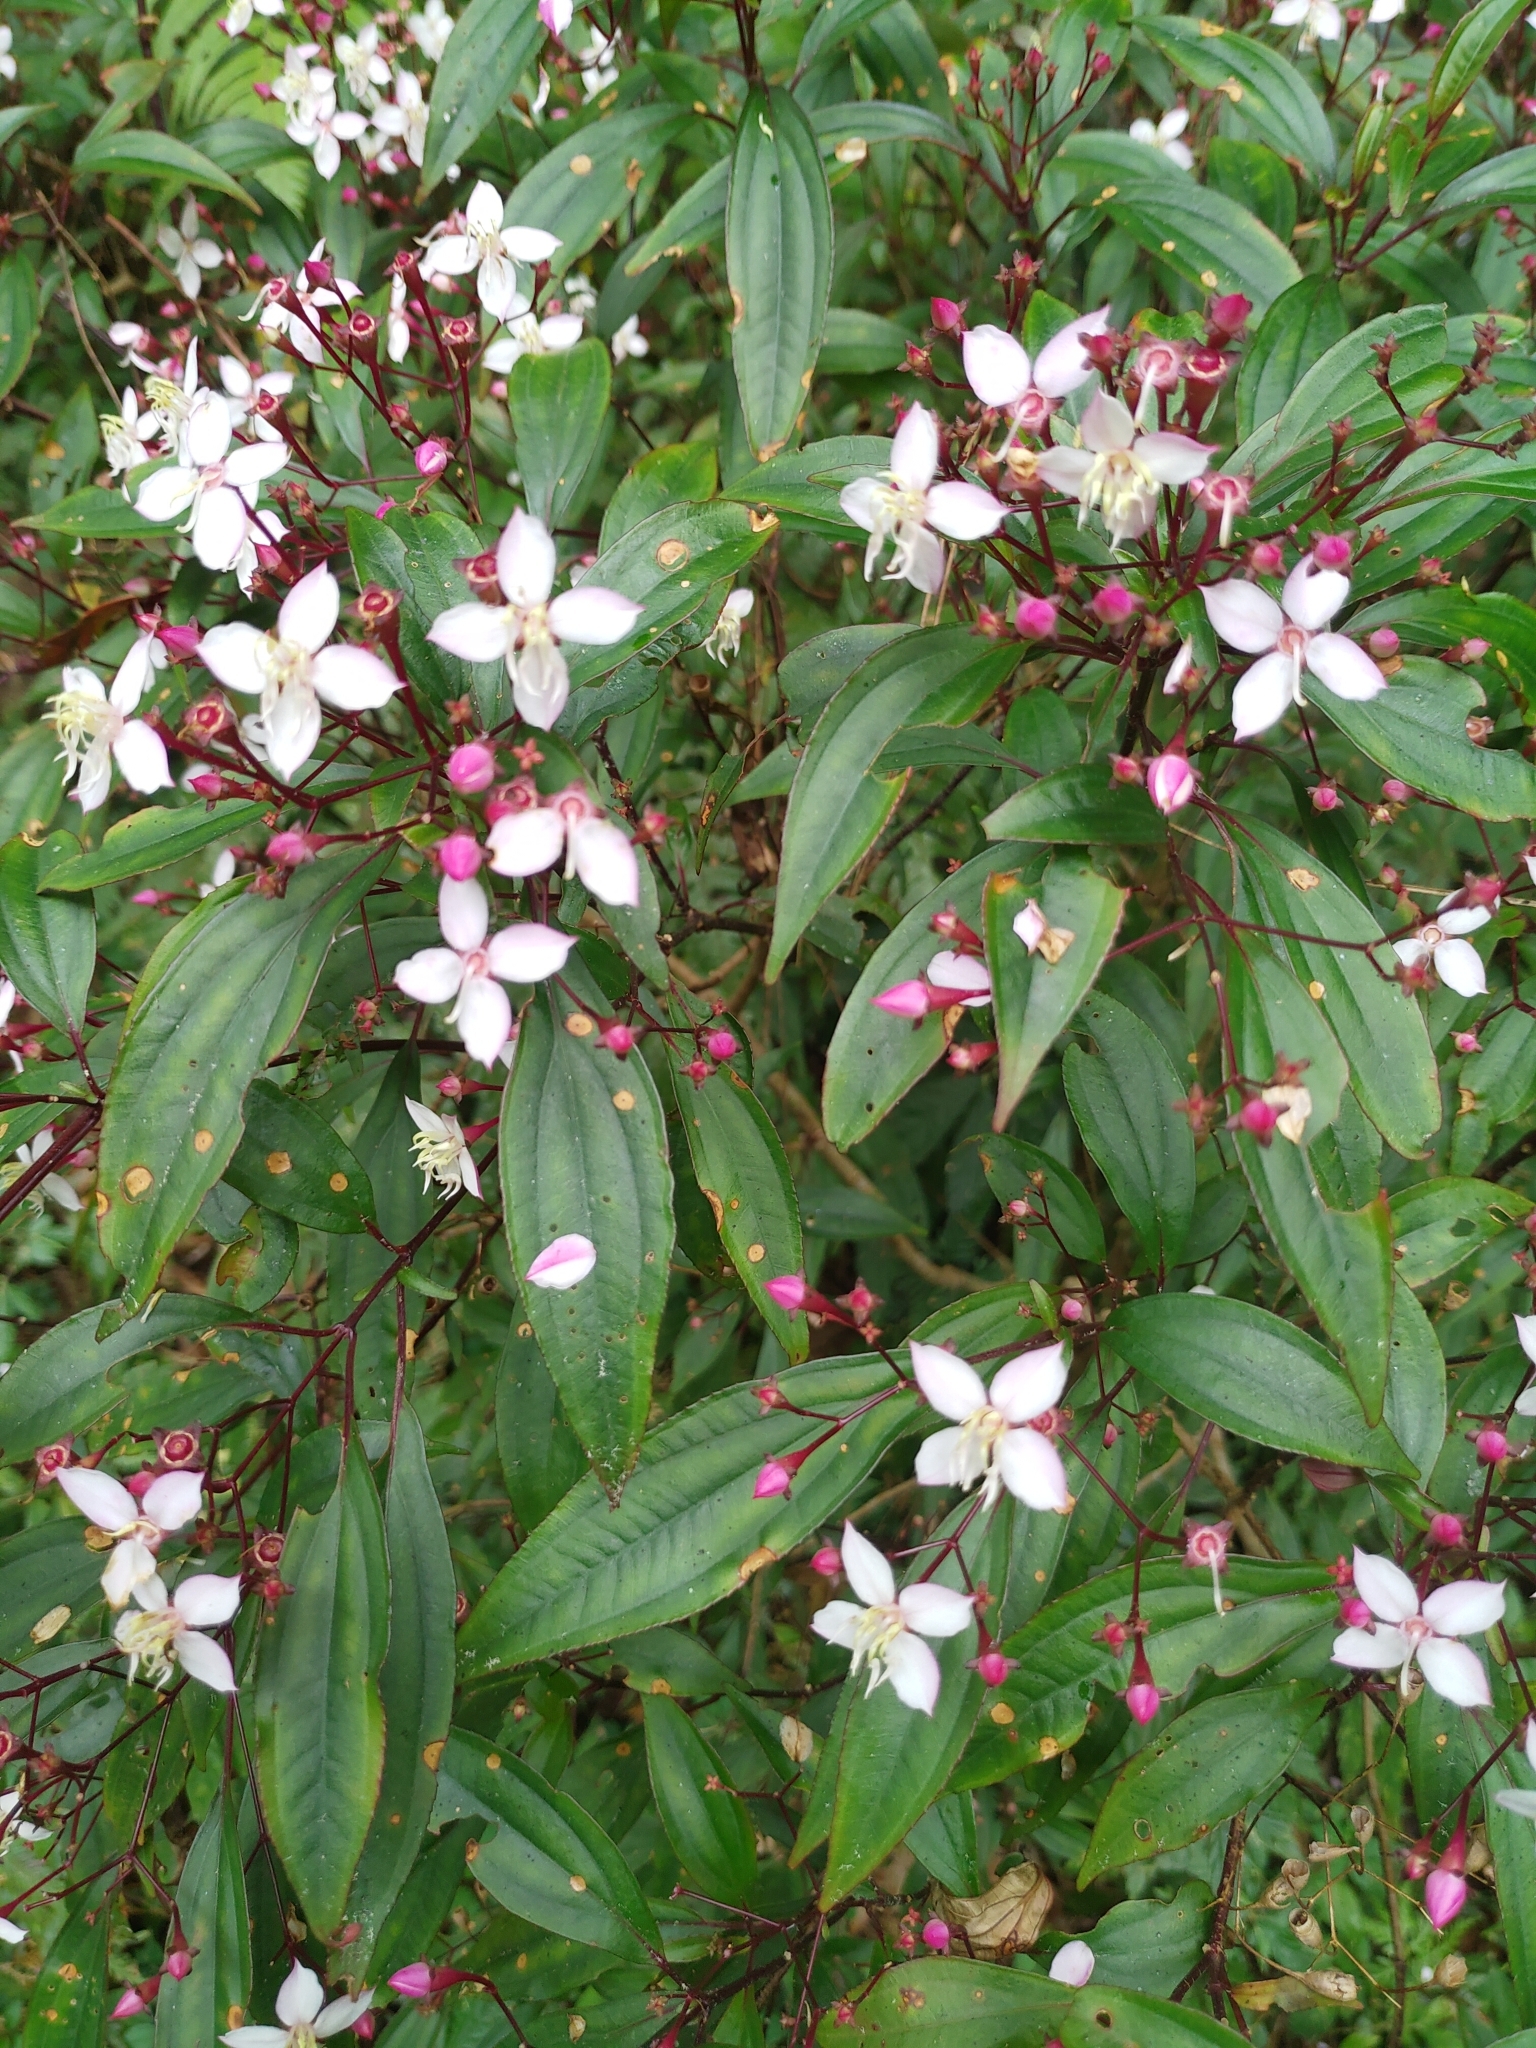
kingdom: Plantae
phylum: Tracheophyta
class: Magnoliopsida
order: Myrtales
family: Melastomataceae
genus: Bredia
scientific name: Bredia oldhamii
